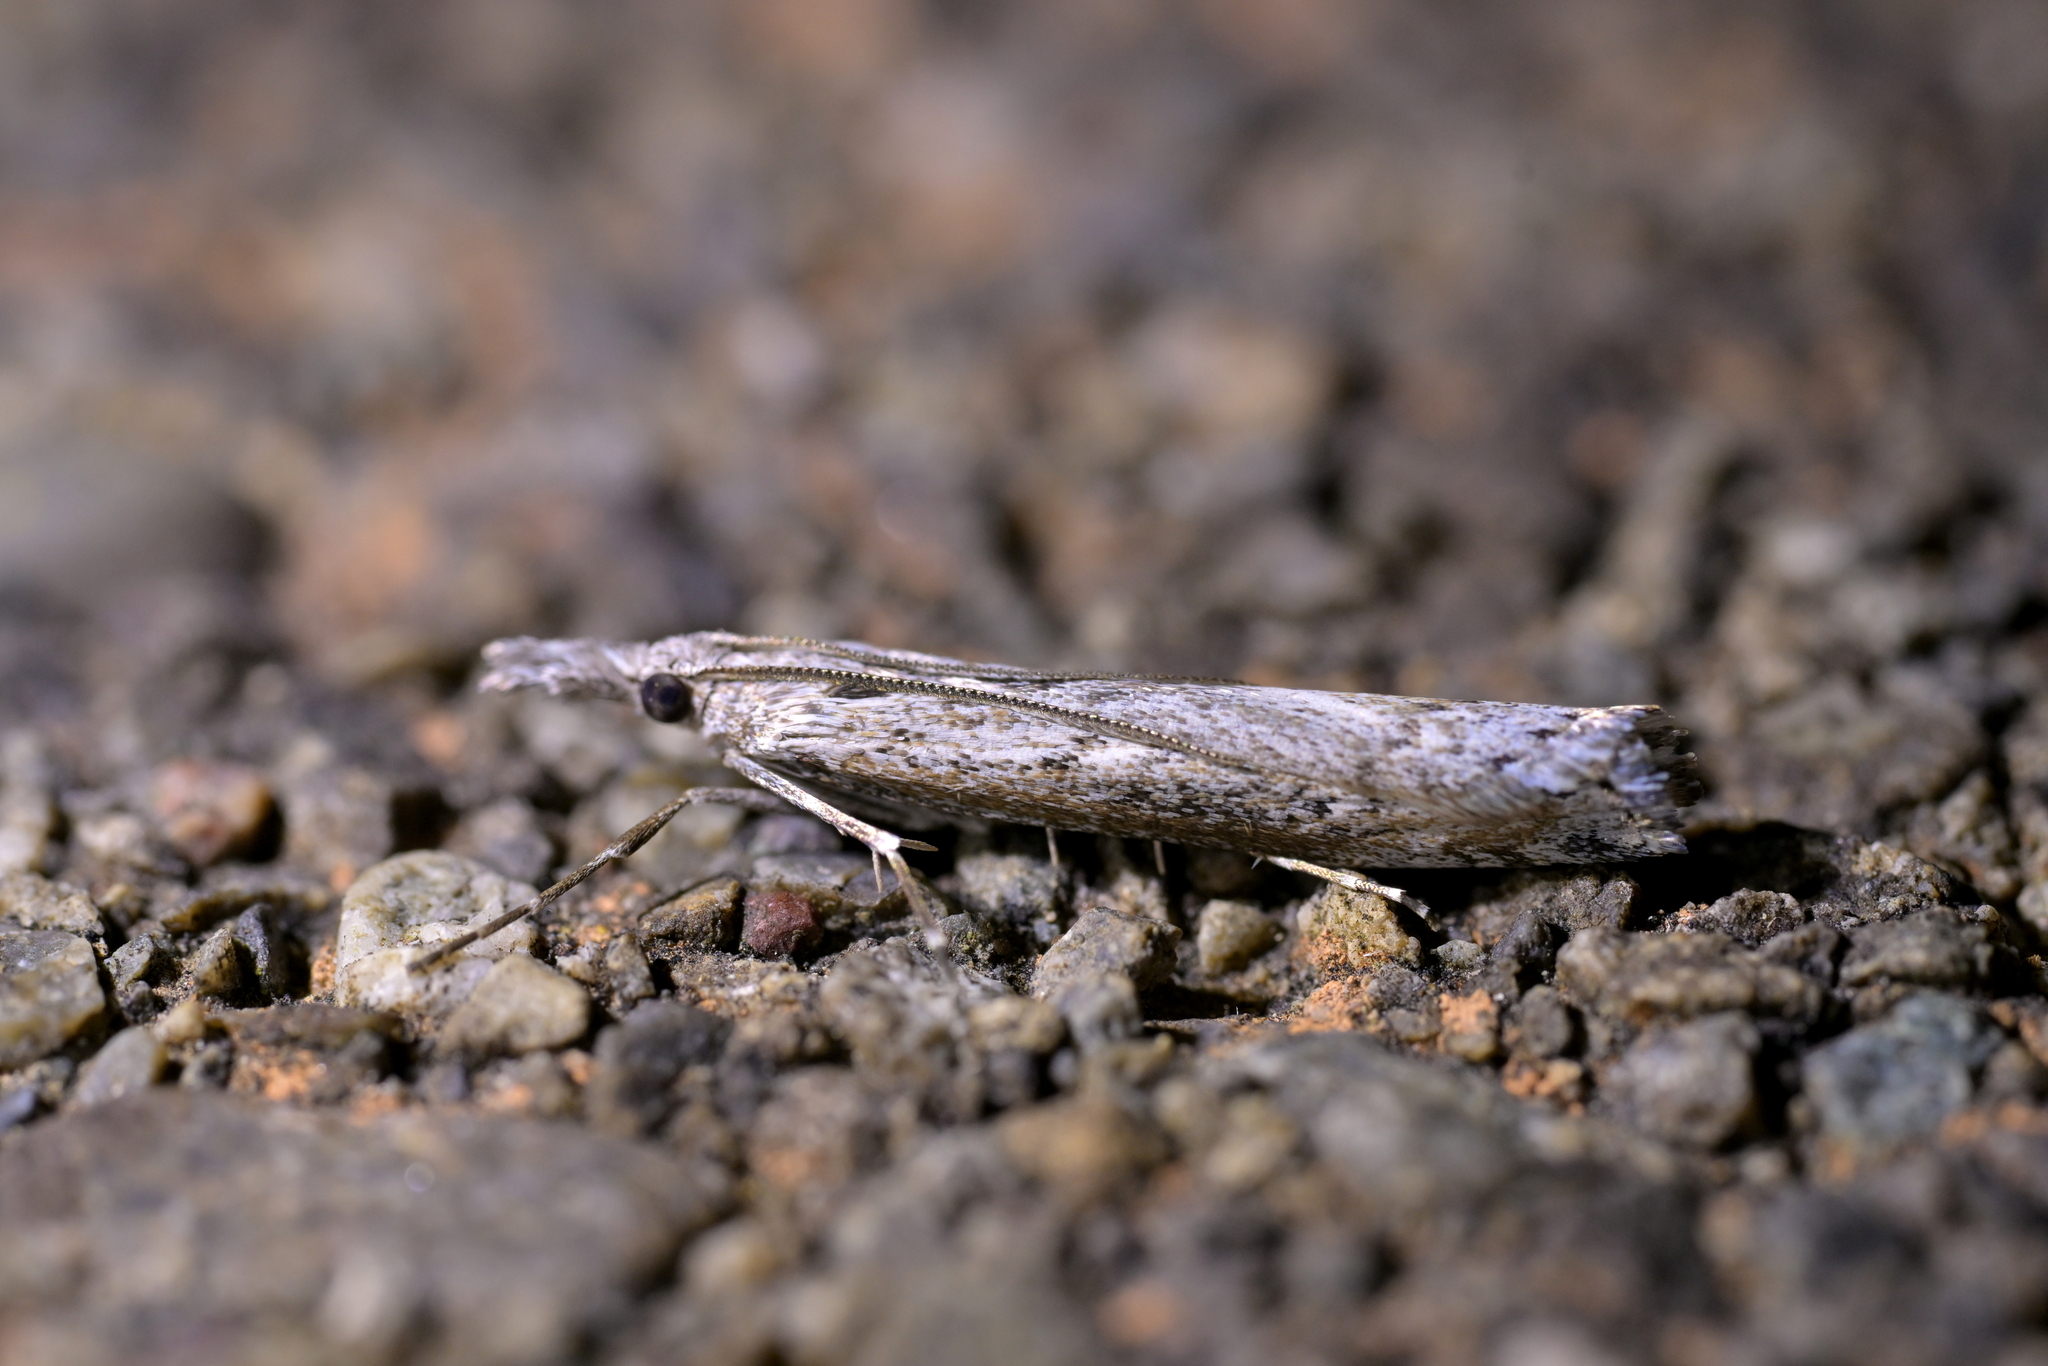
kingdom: Animalia
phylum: Arthropoda
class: Insecta
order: Lepidoptera
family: Crambidae
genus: Orocrambus
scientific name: Orocrambus cyclopicus
